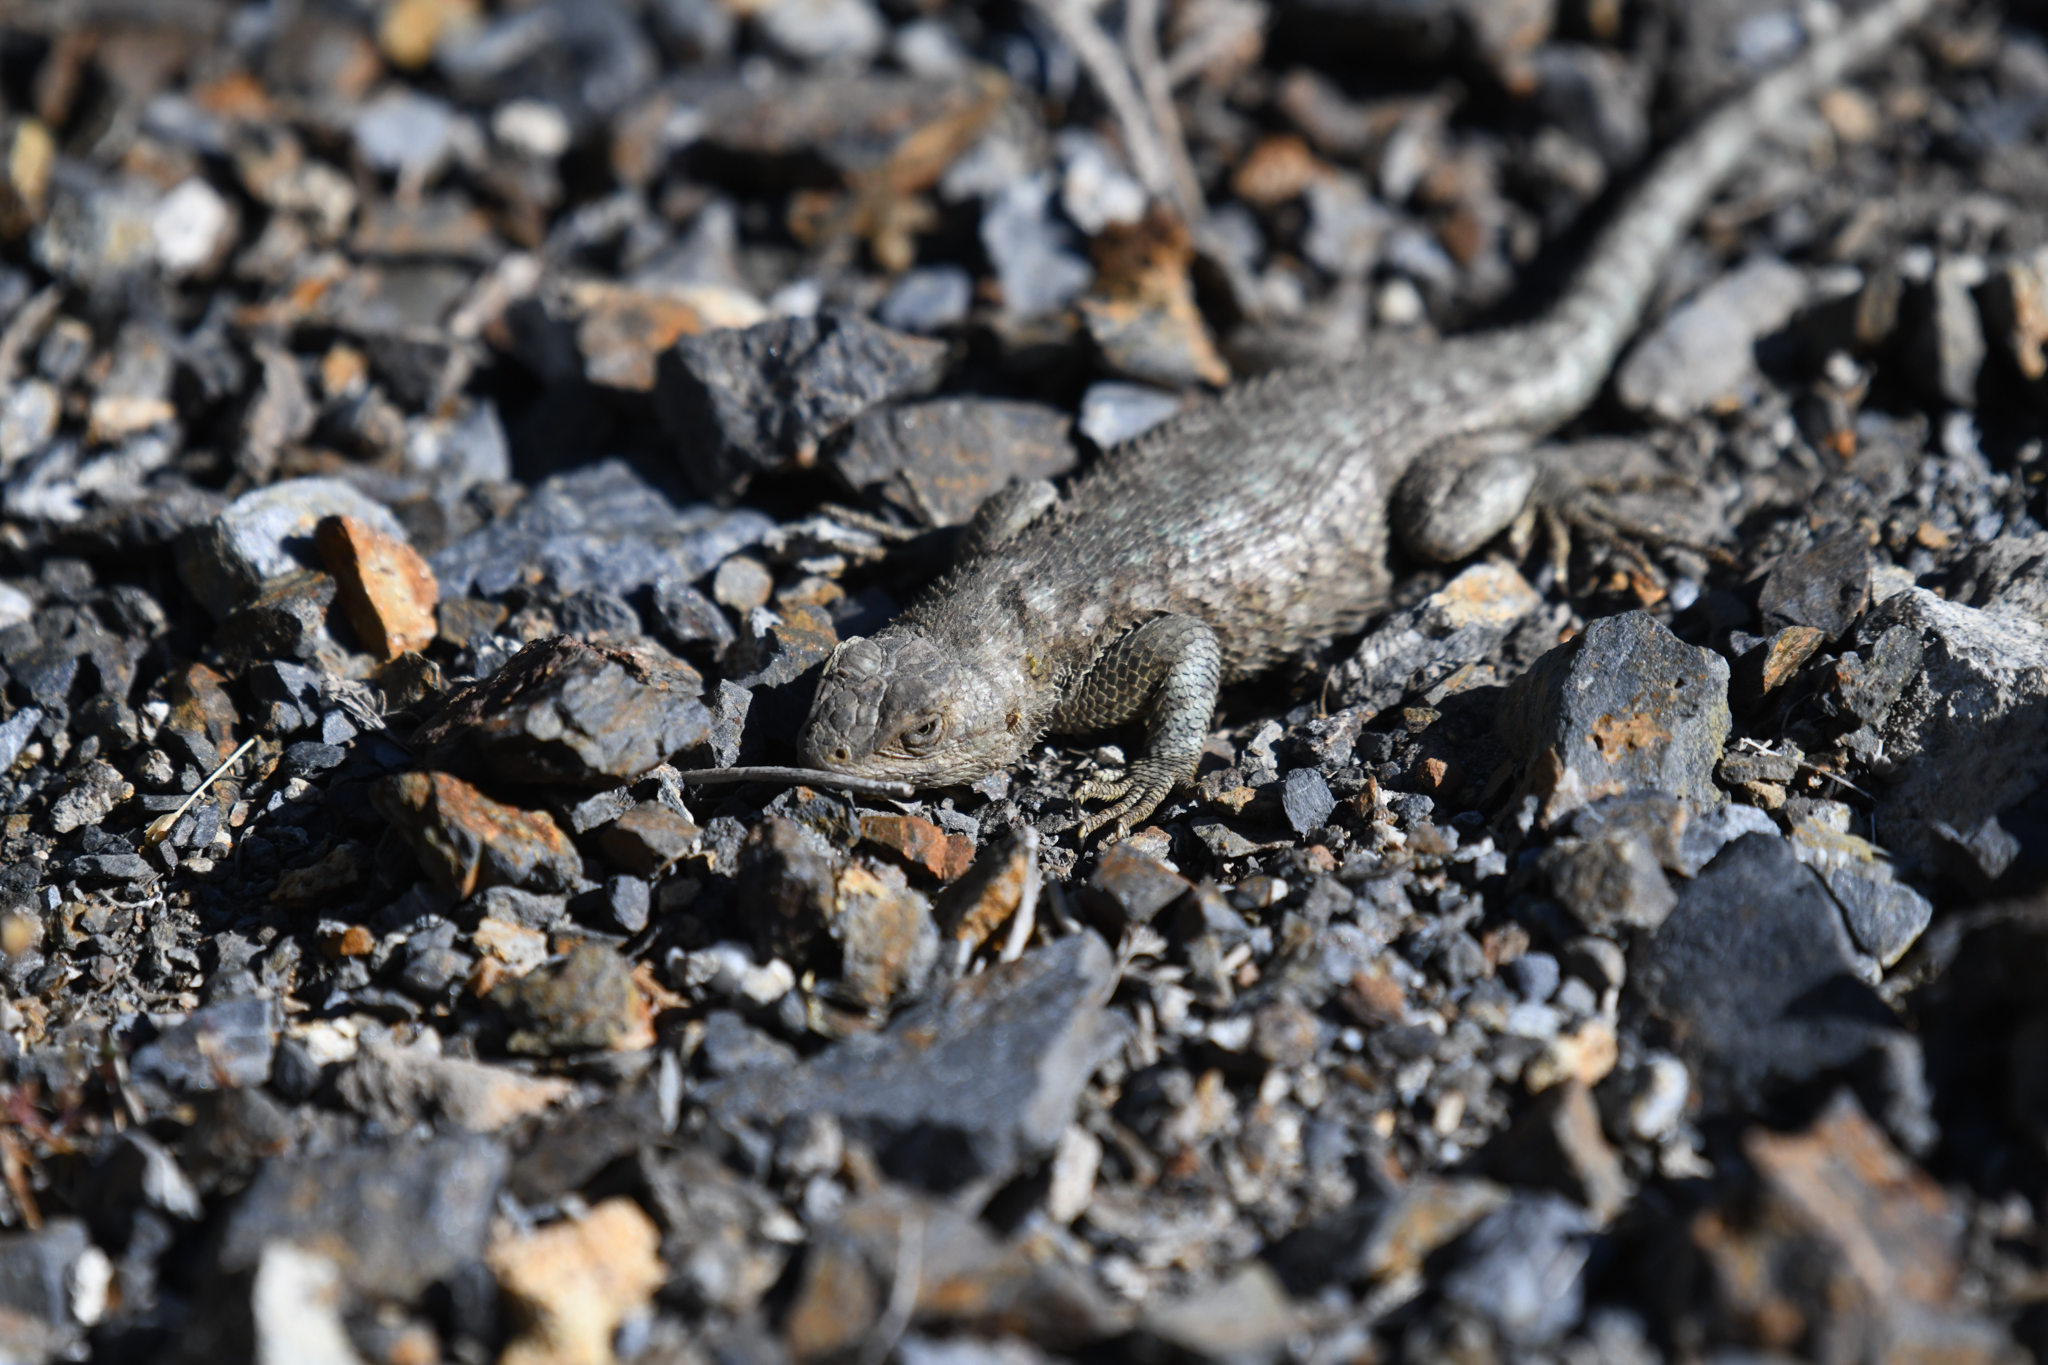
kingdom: Animalia
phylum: Chordata
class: Squamata
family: Phrynosomatidae
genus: Sceloporus
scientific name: Sceloporus occidentalis
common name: Western fence lizard
